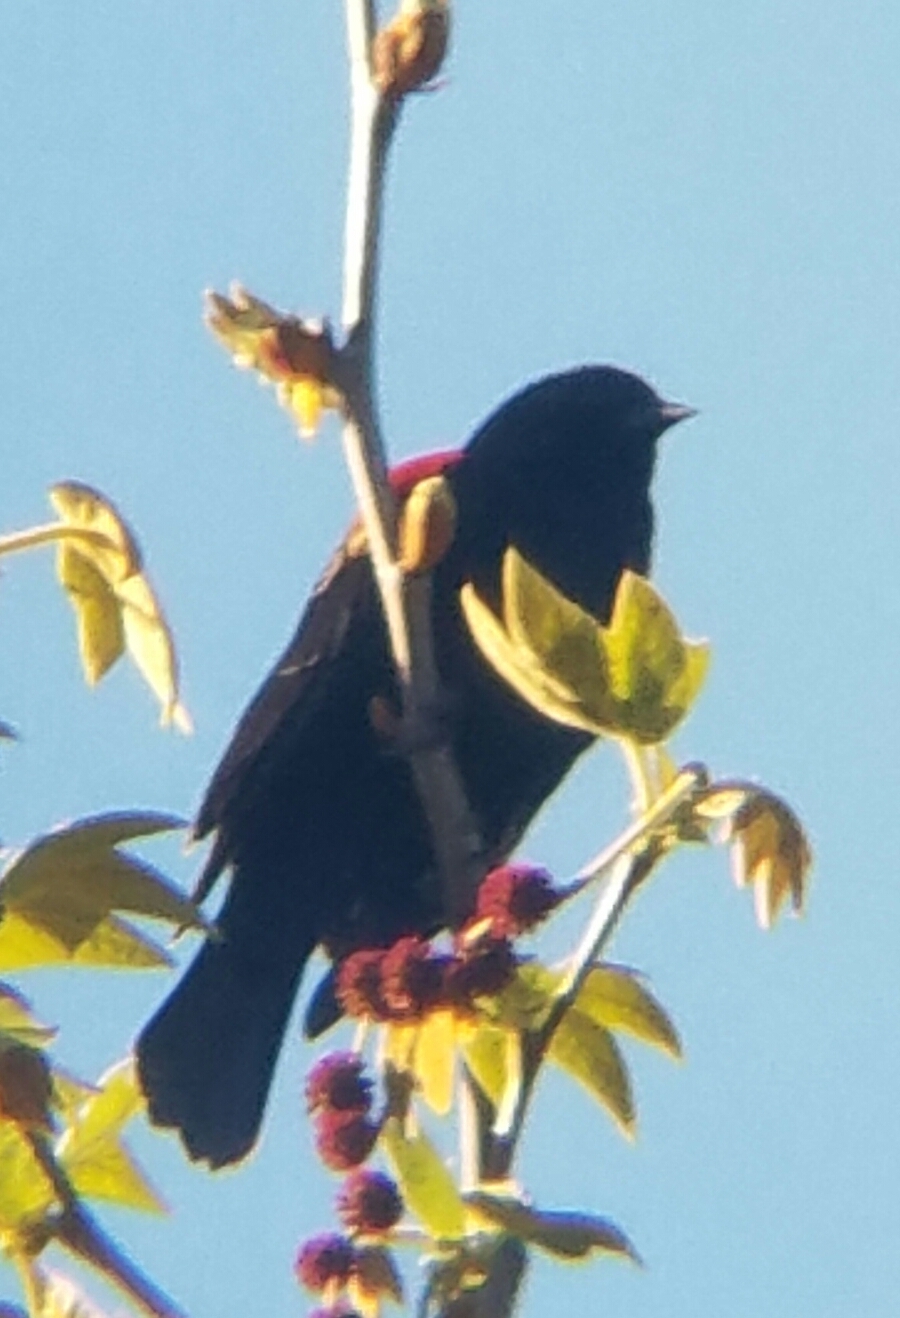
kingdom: Animalia
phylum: Chordata
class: Aves
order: Passeriformes
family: Icteridae
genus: Agelaius
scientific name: Agelaius phoeniceus
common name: Red-winged blackbird
